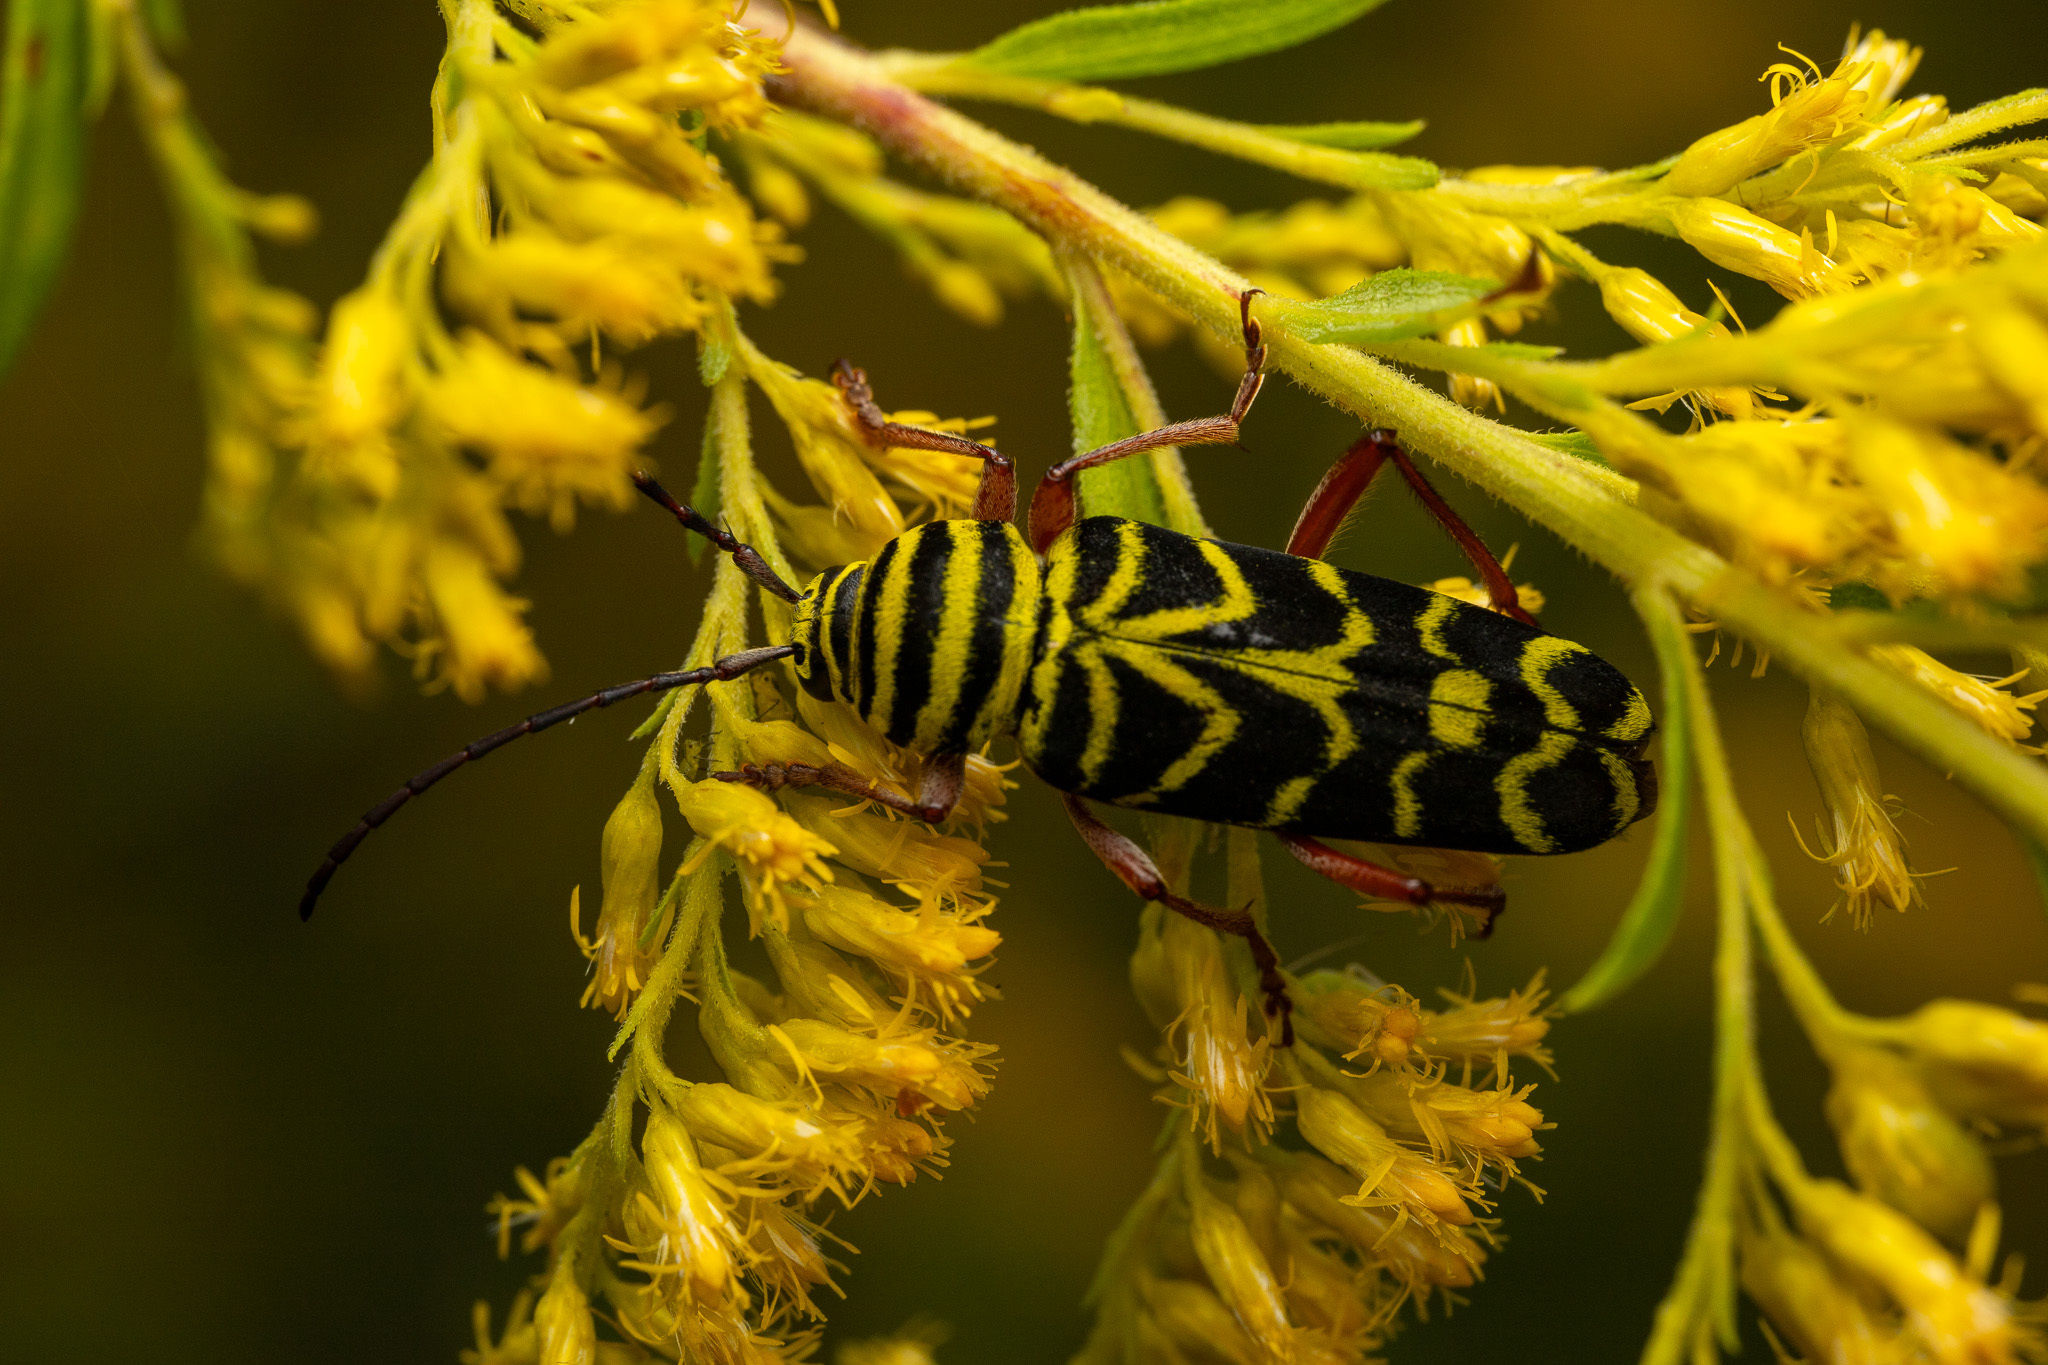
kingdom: Animalia
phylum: Arthropoda
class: Insecta
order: Coleoptera
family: Cerambycidae
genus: Megacyllene
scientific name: Megacyllene robiniae
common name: Locust borer
